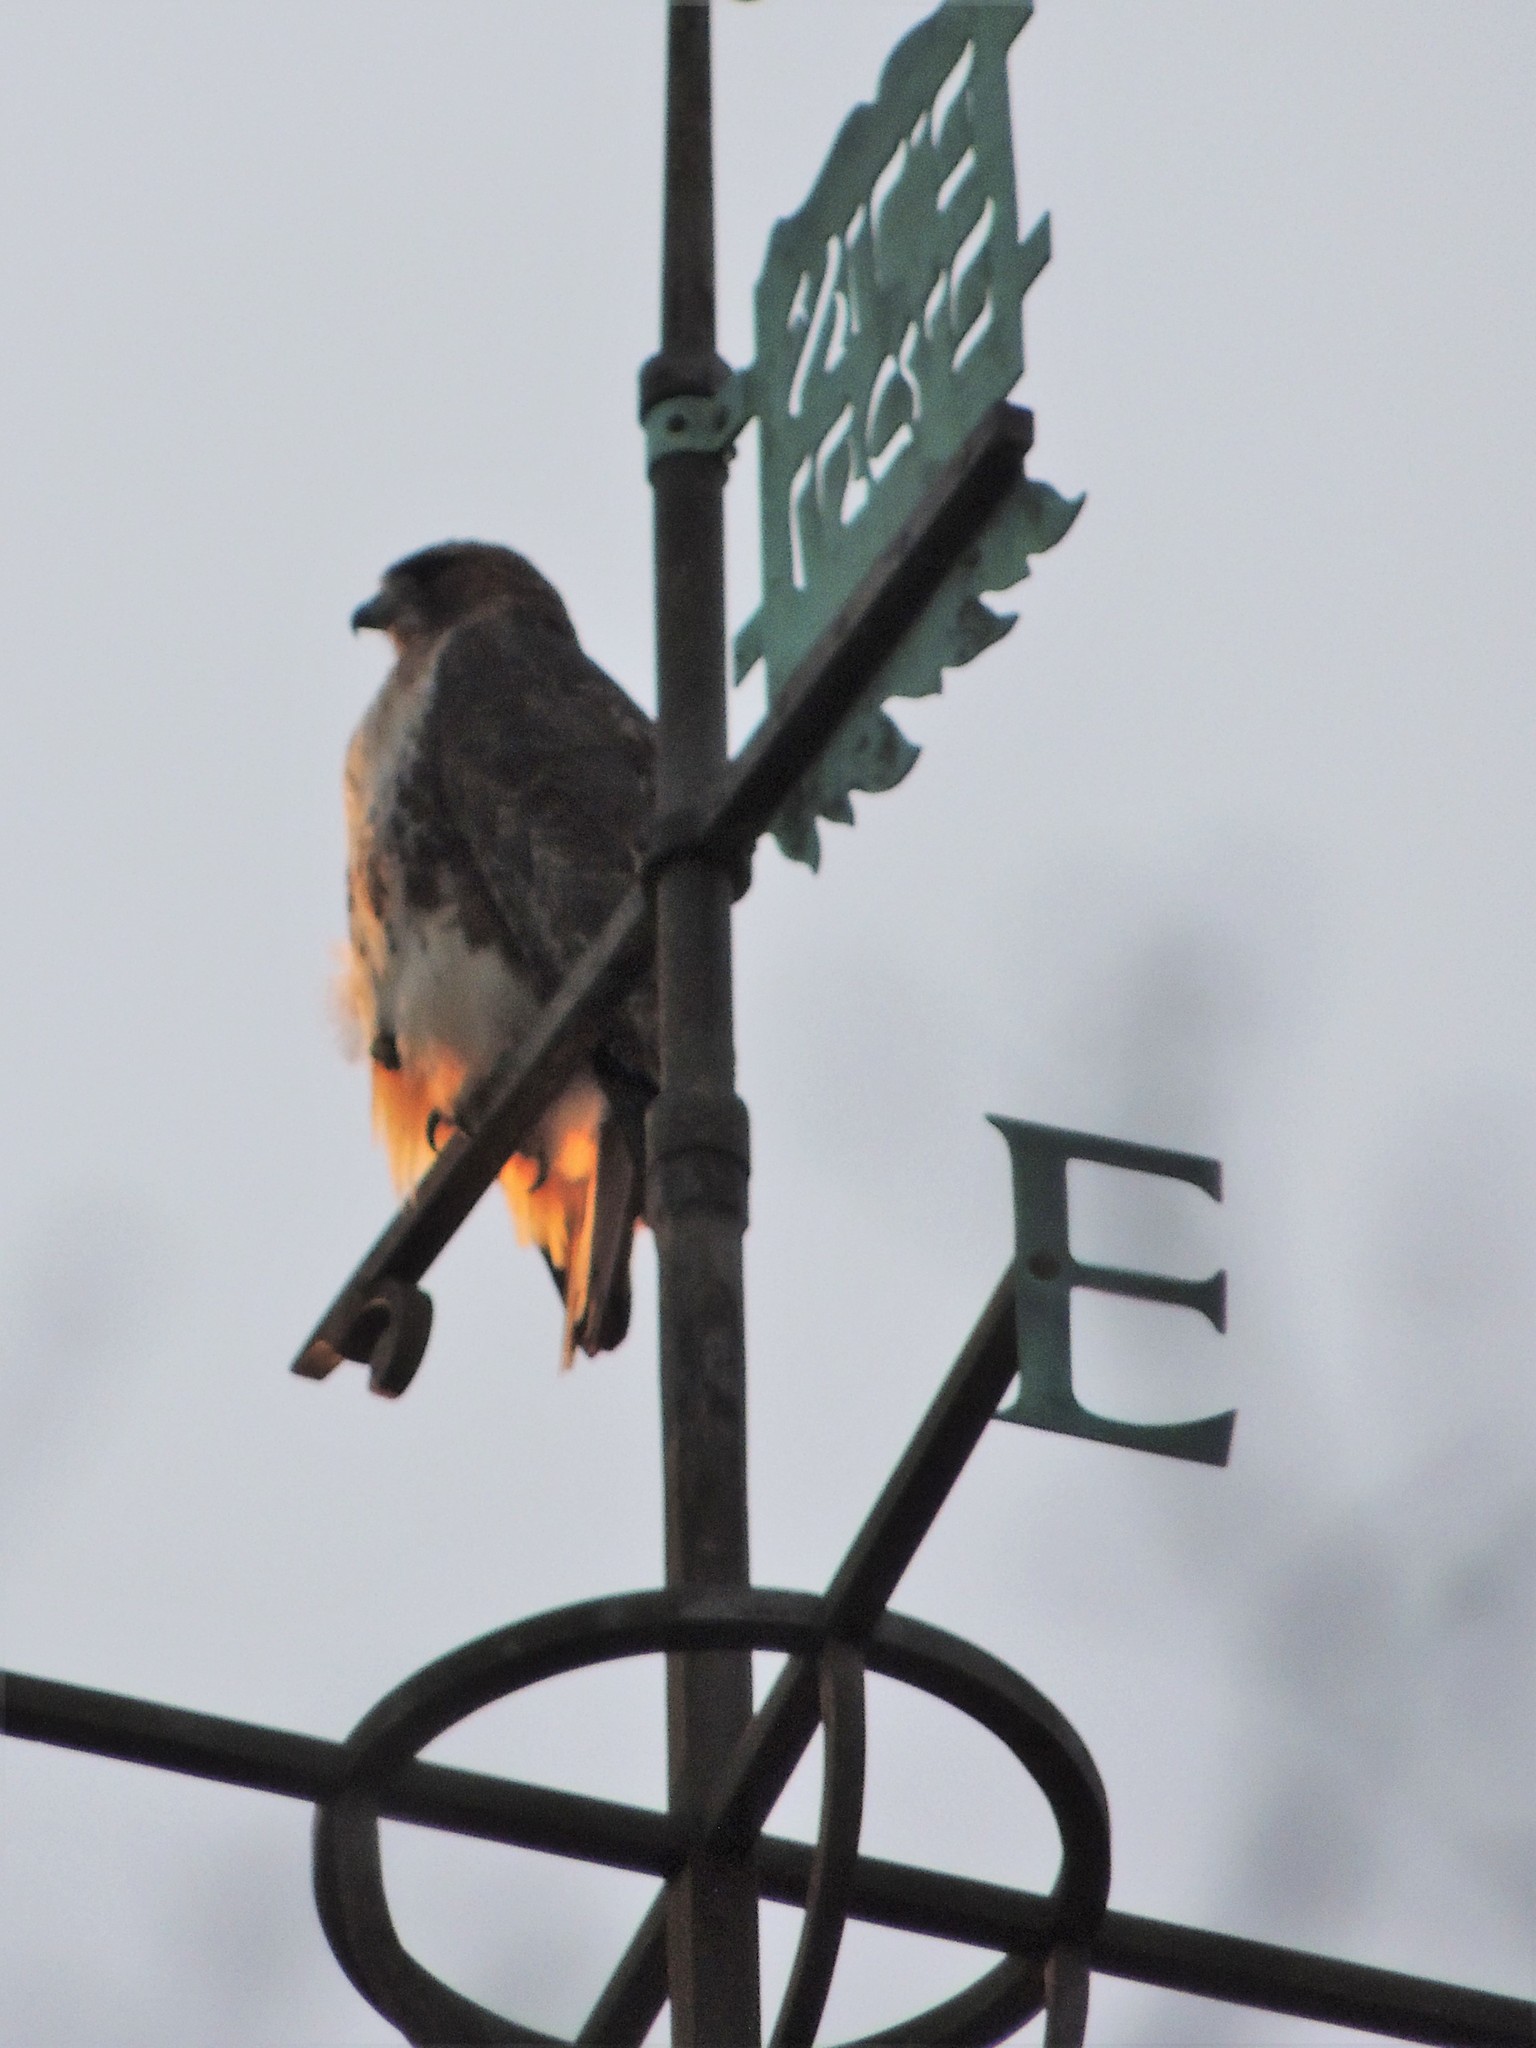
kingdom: Animalia
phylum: Chordata
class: Aves
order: Accipitriformes
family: Accipitridae
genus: Buteo
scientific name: Buteo jamaicensis
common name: Red-tailed hawk
